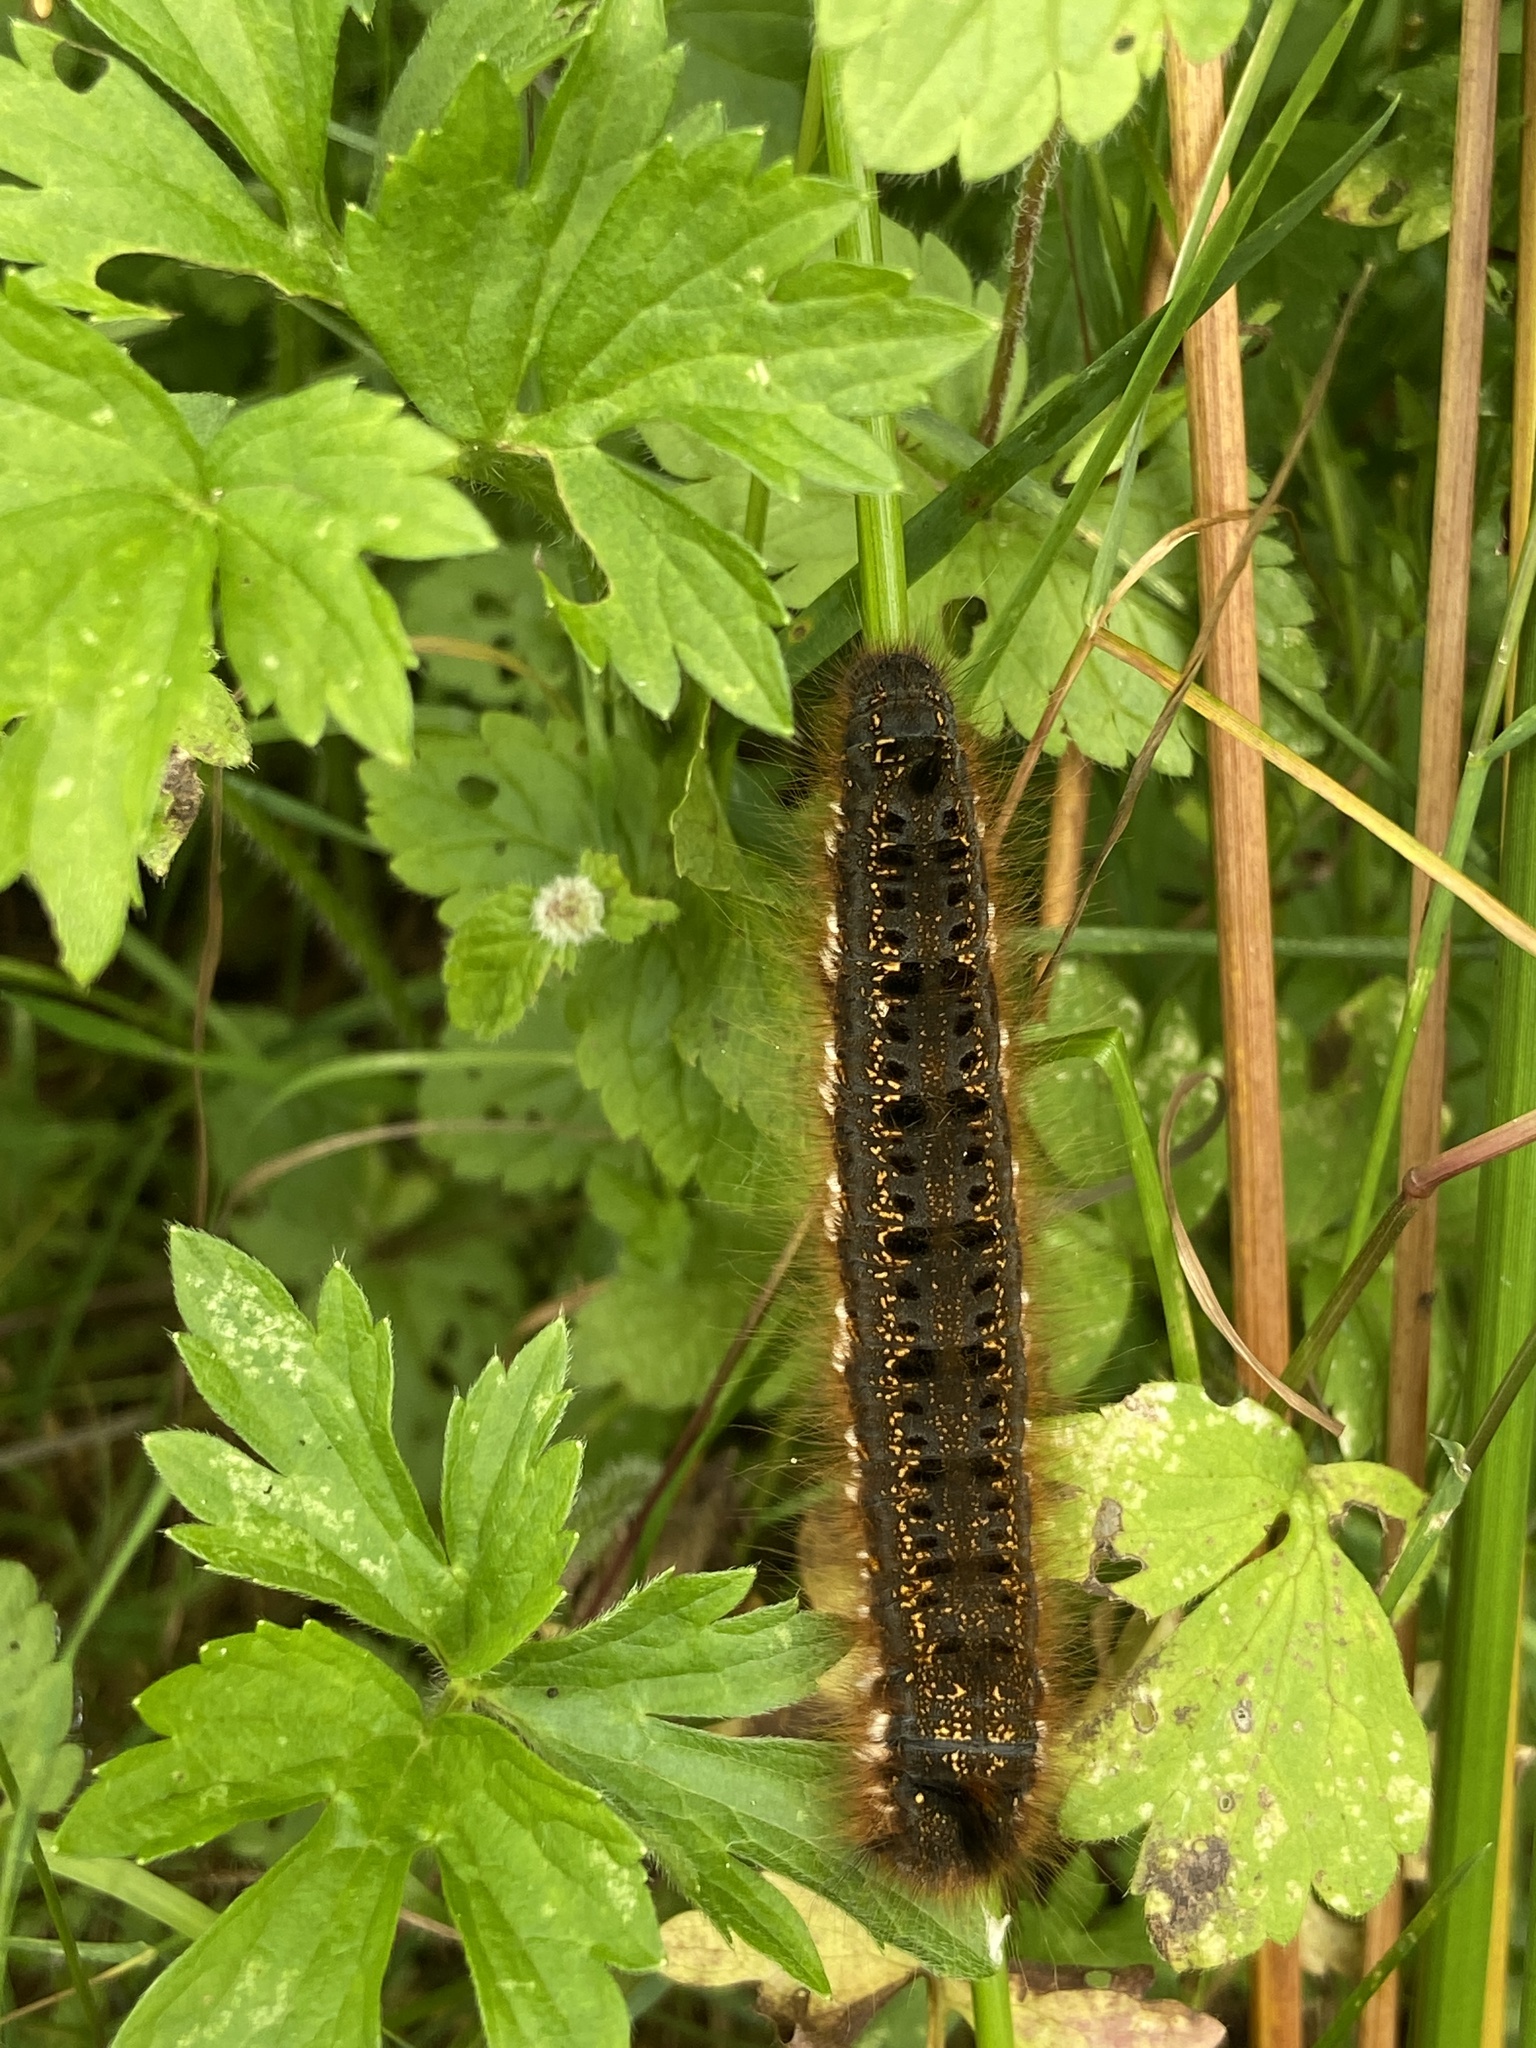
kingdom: Animalia
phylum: Arthropoda
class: Insecta
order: Lepidoptera
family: Lasiocampidae
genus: Euthrix
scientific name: Euthrix potatoria
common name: Drinker
